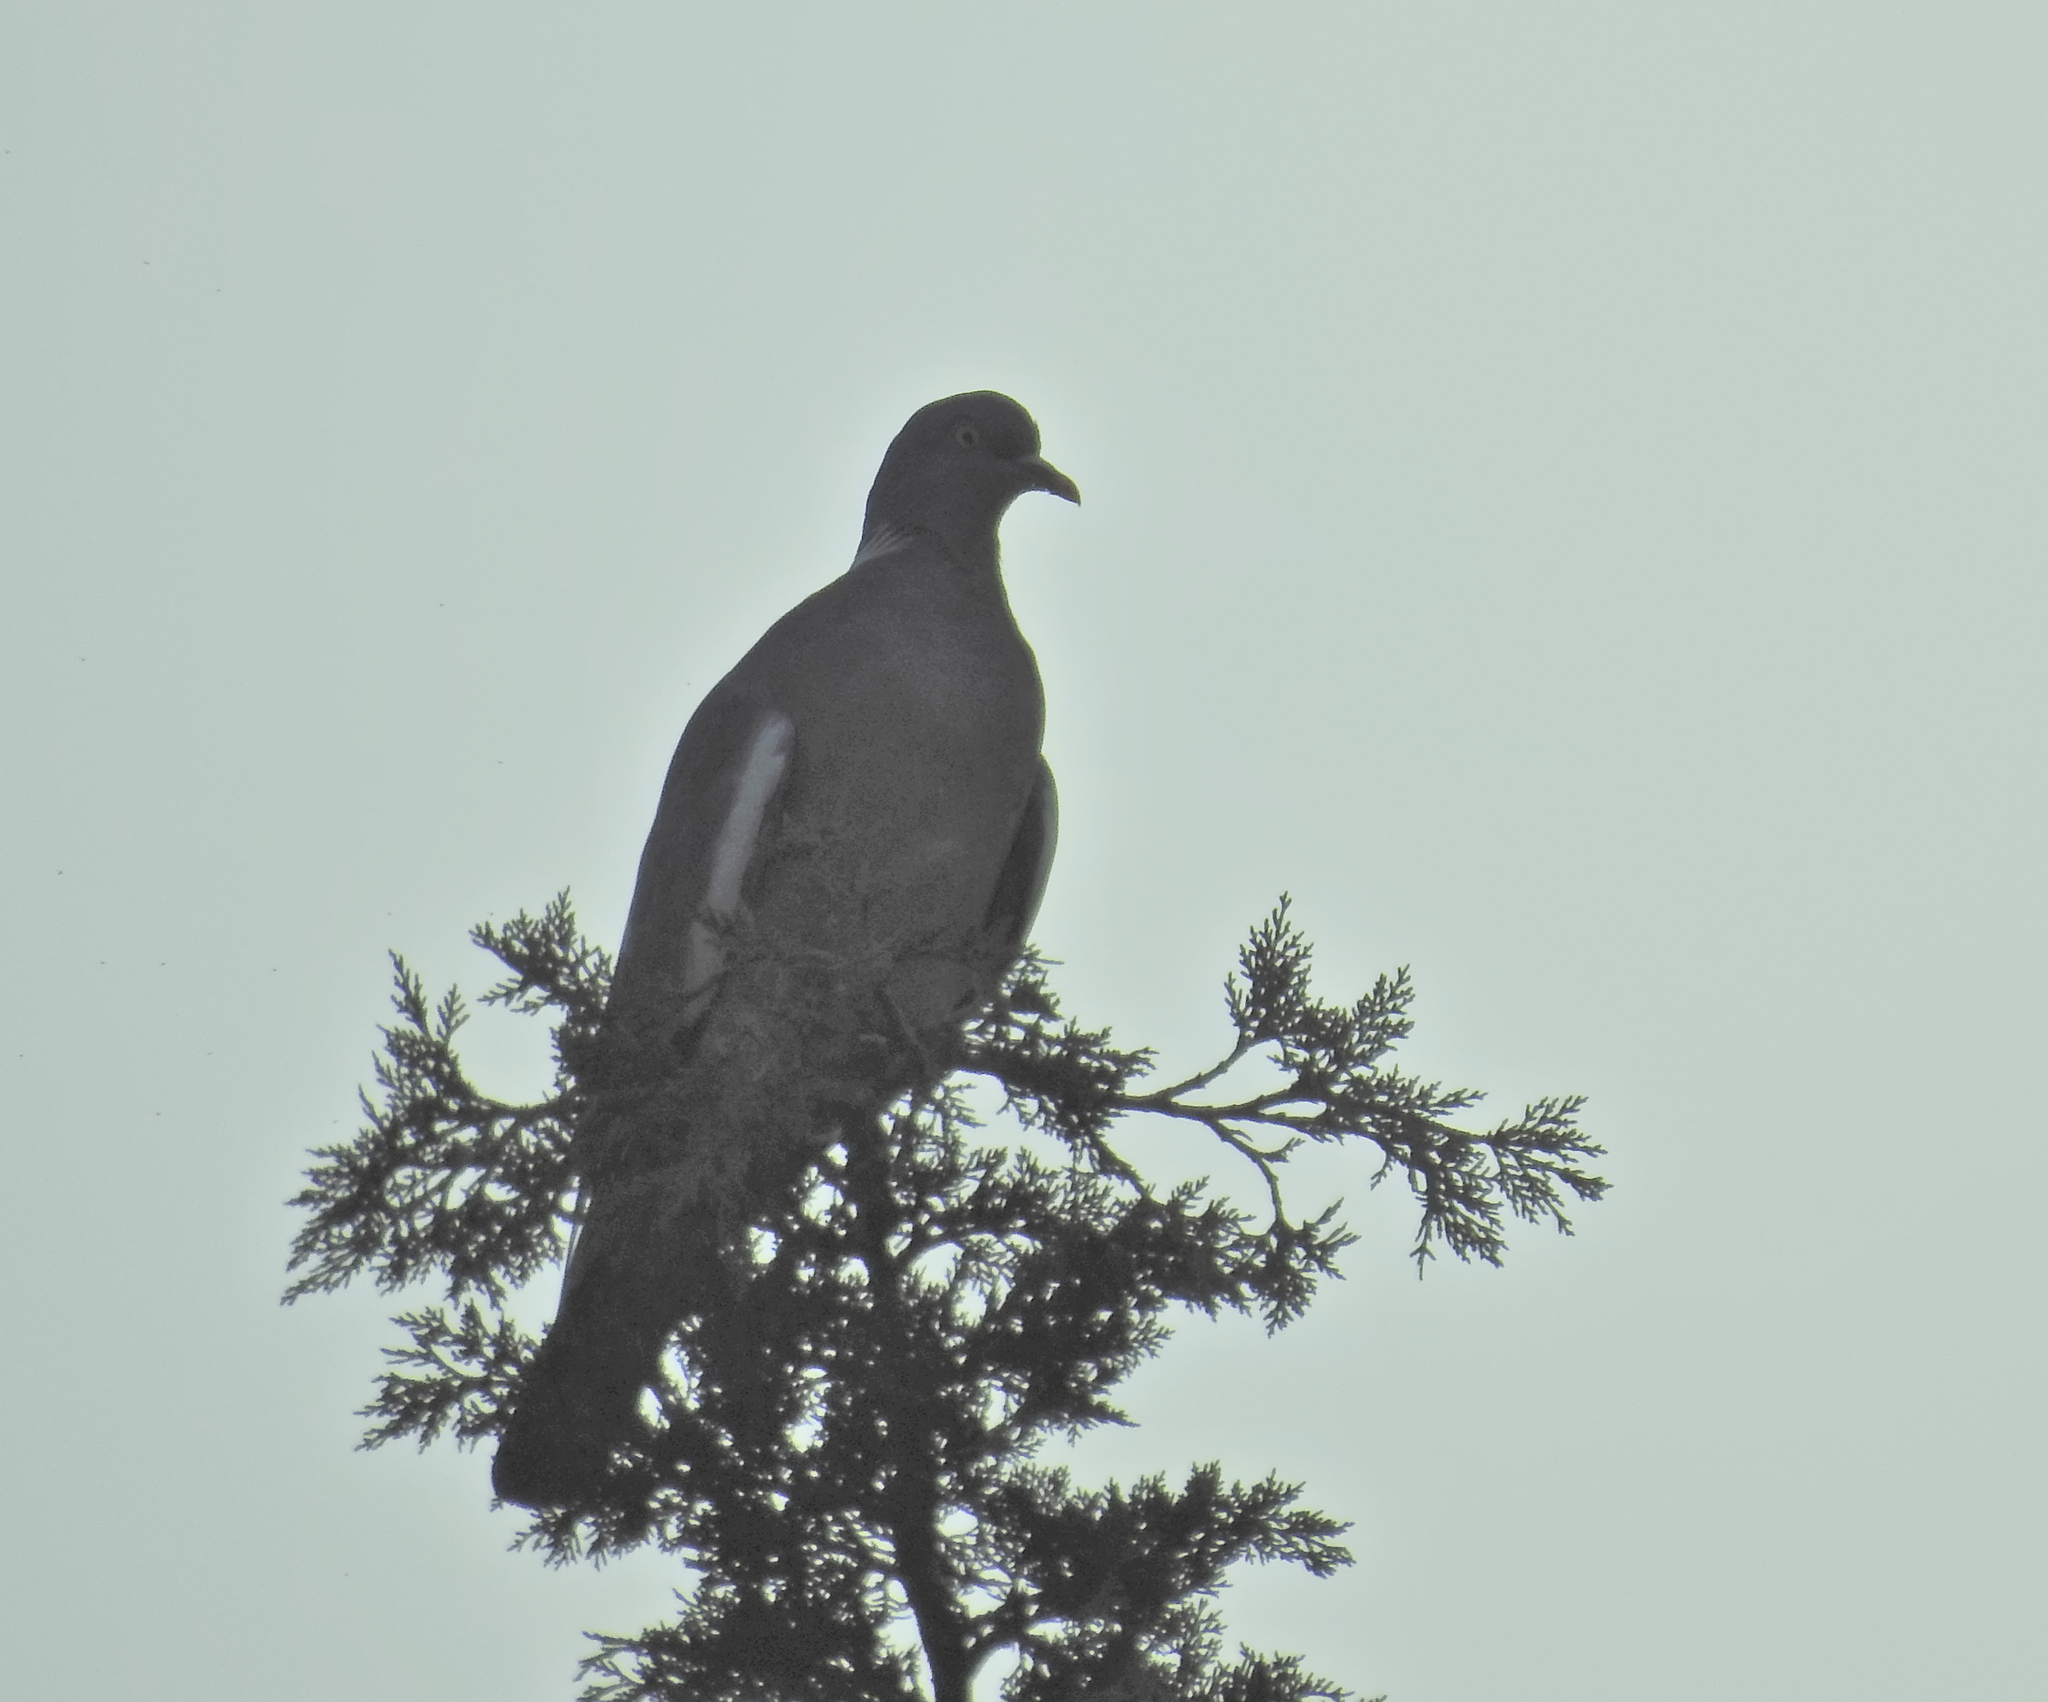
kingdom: Animalia
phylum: Chordata
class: Aves
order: Columbiformes
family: Columbidae
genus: Columba
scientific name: Columba palumbus
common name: Common wood pigeon
